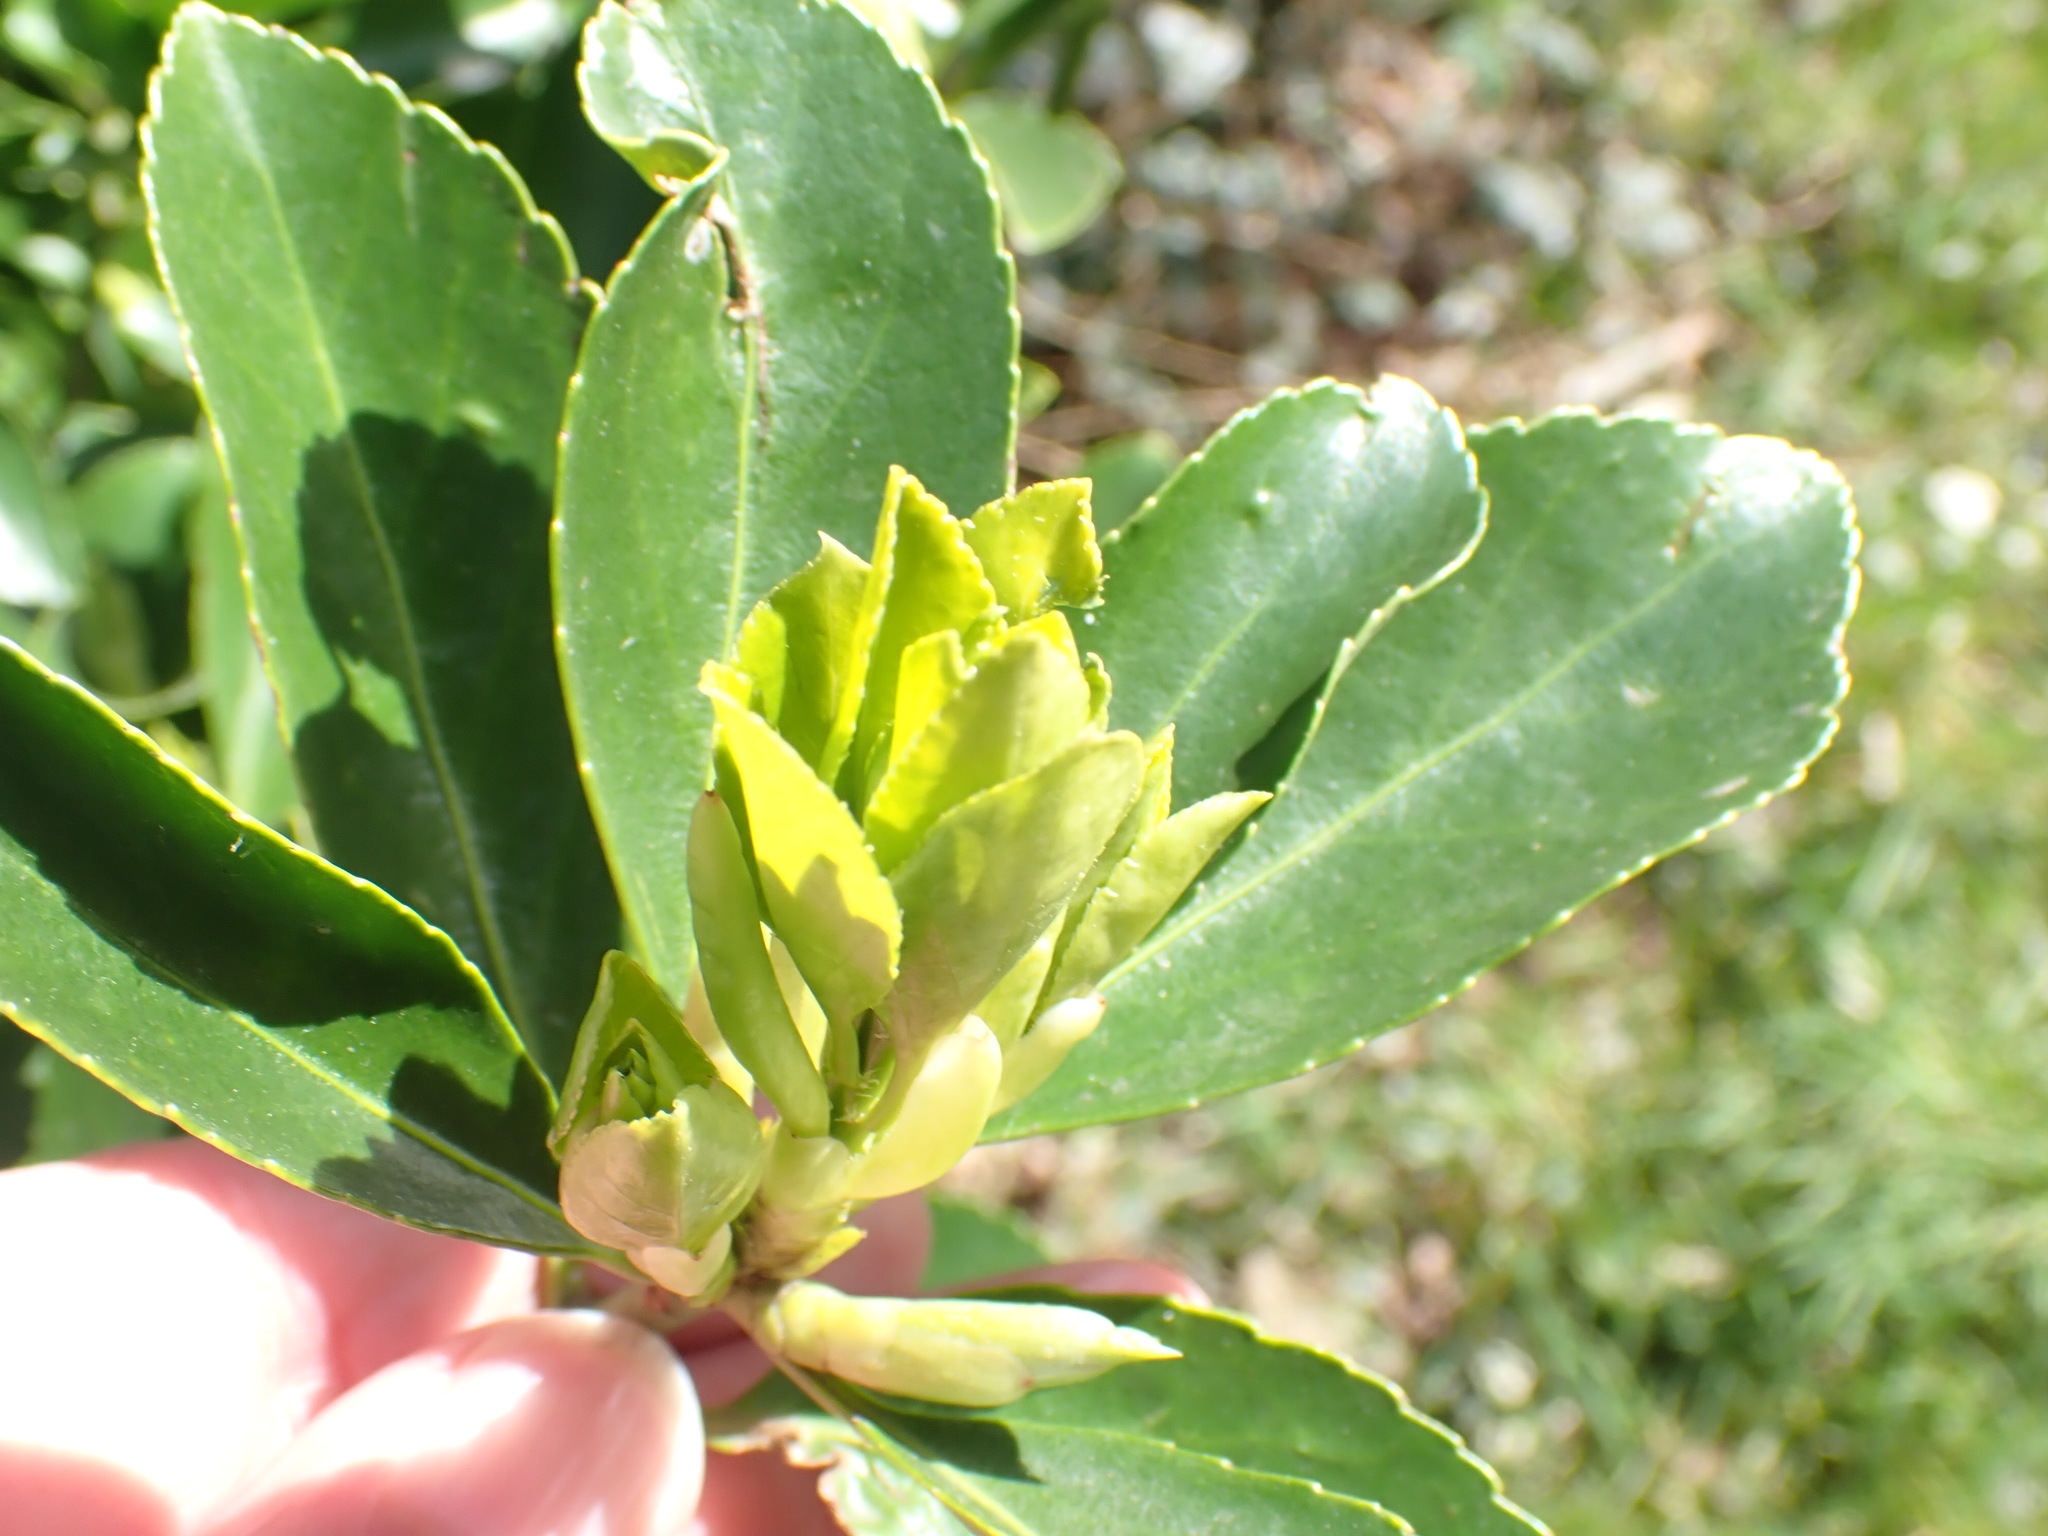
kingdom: Plantae
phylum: Tracheophyta
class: Magnoliopsida
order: Celastrales
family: Celastraceae
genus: Euonymus
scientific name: Euonymus japonicus
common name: Japanese spindletree
